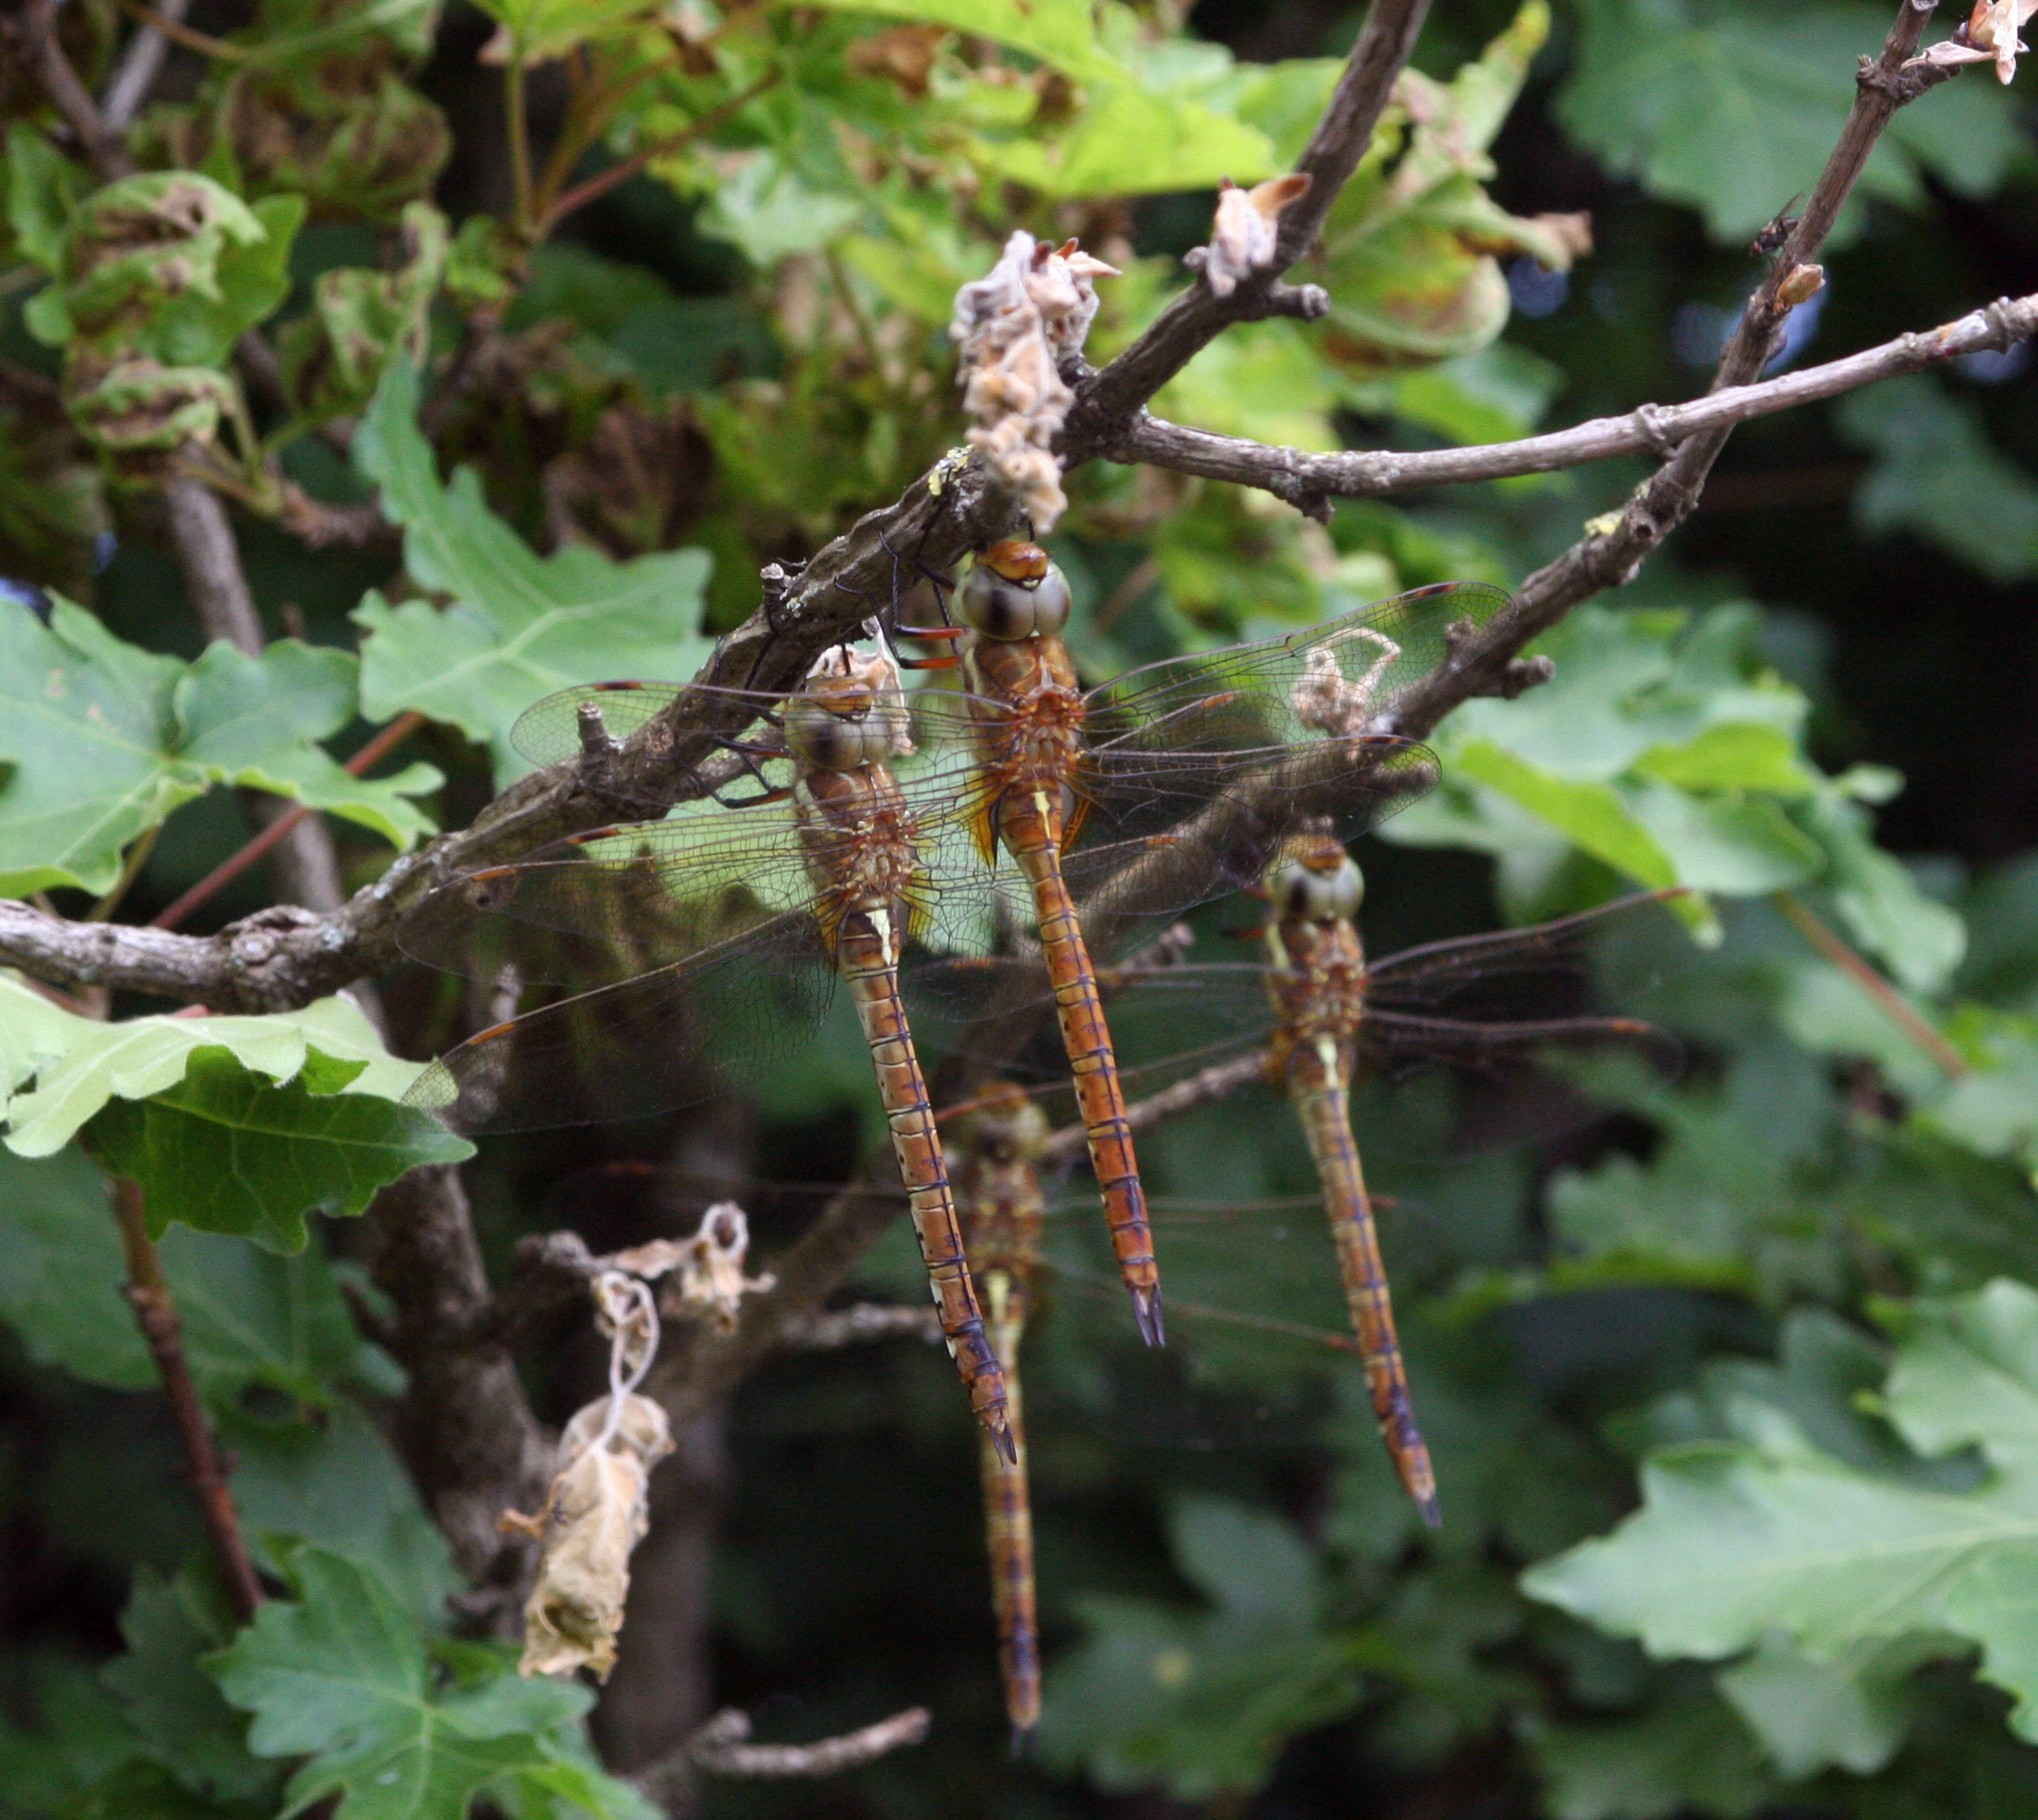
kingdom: Animalia
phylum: Arthropoda
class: Insecta
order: Odonata
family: Aeshnidae
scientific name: Aeshnidae
